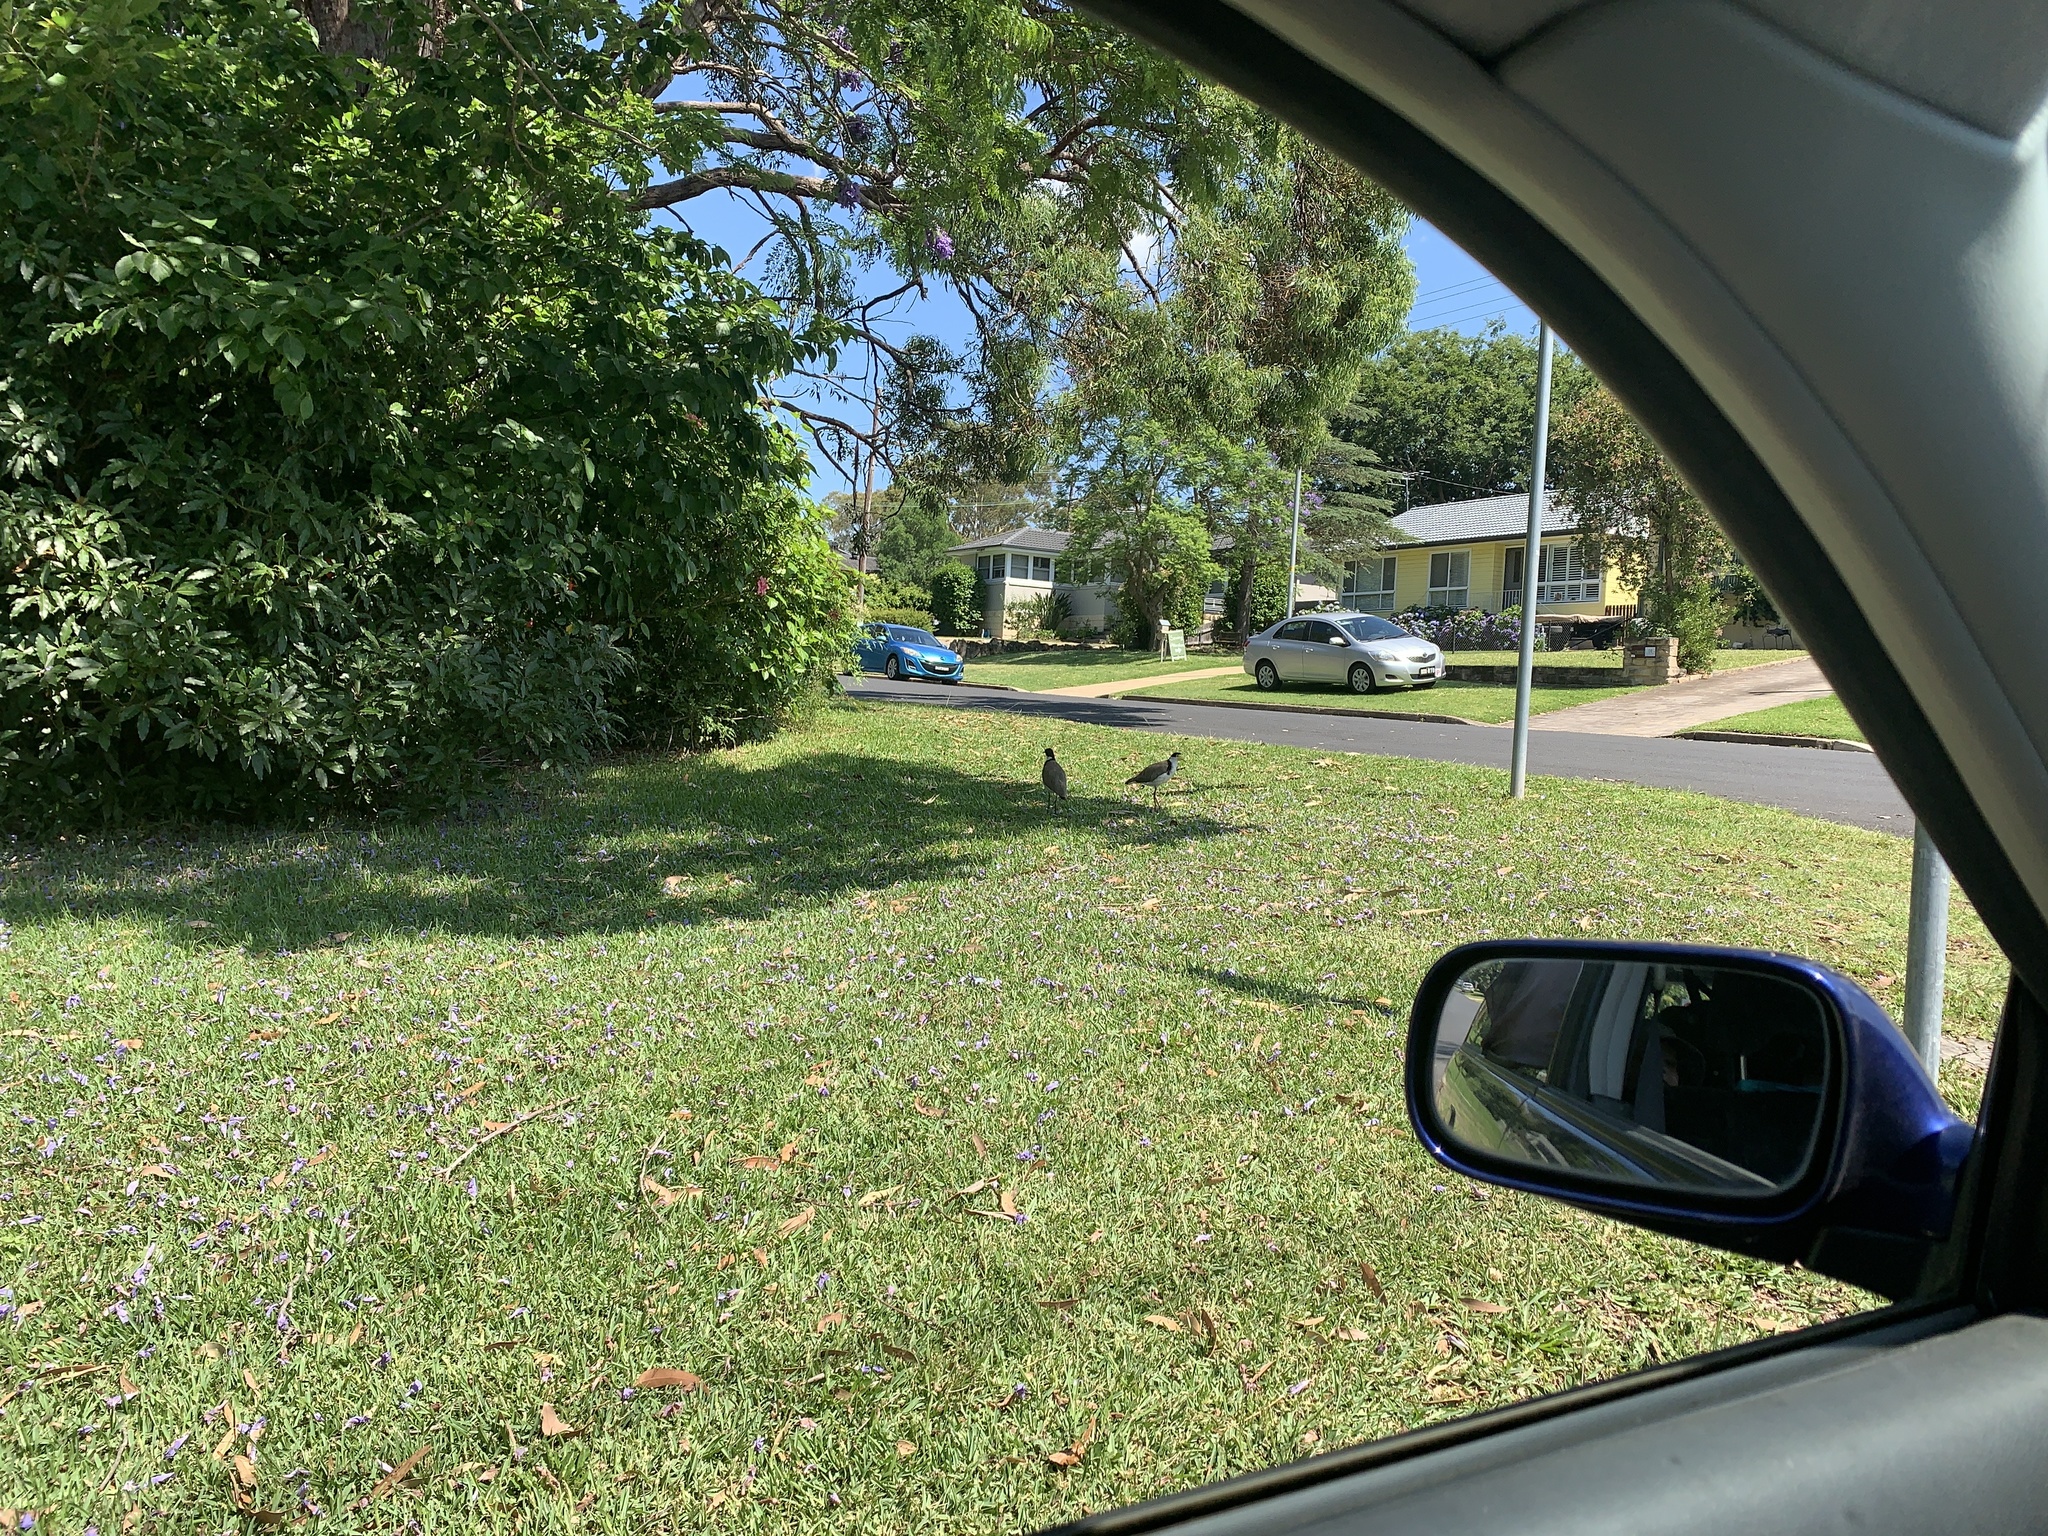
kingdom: Animalia
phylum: Chordata
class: Aves
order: Charadriiformes
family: Charadriidae
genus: Vanellus
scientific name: Vanellus miles
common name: Masked lapwing
